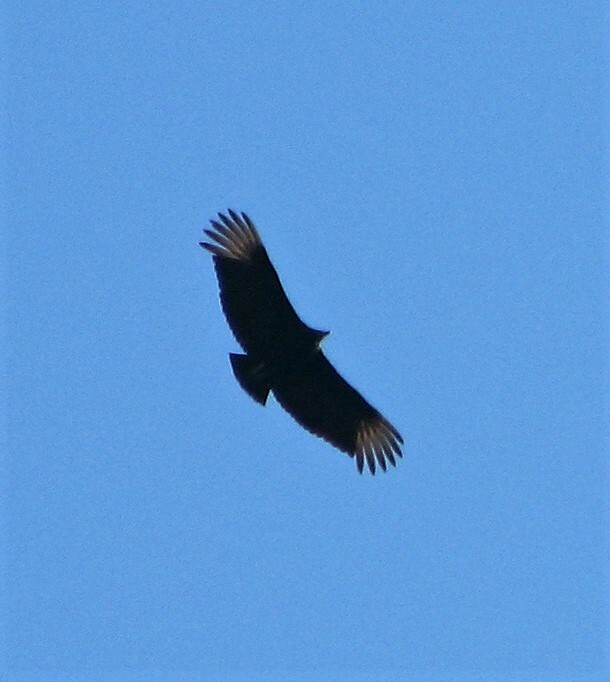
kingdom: Animalia
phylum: Chordata
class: Aves
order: Accipitriformes
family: Cathartidae
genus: Coragyps
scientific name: Coragyps atratus
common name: Black vulture
